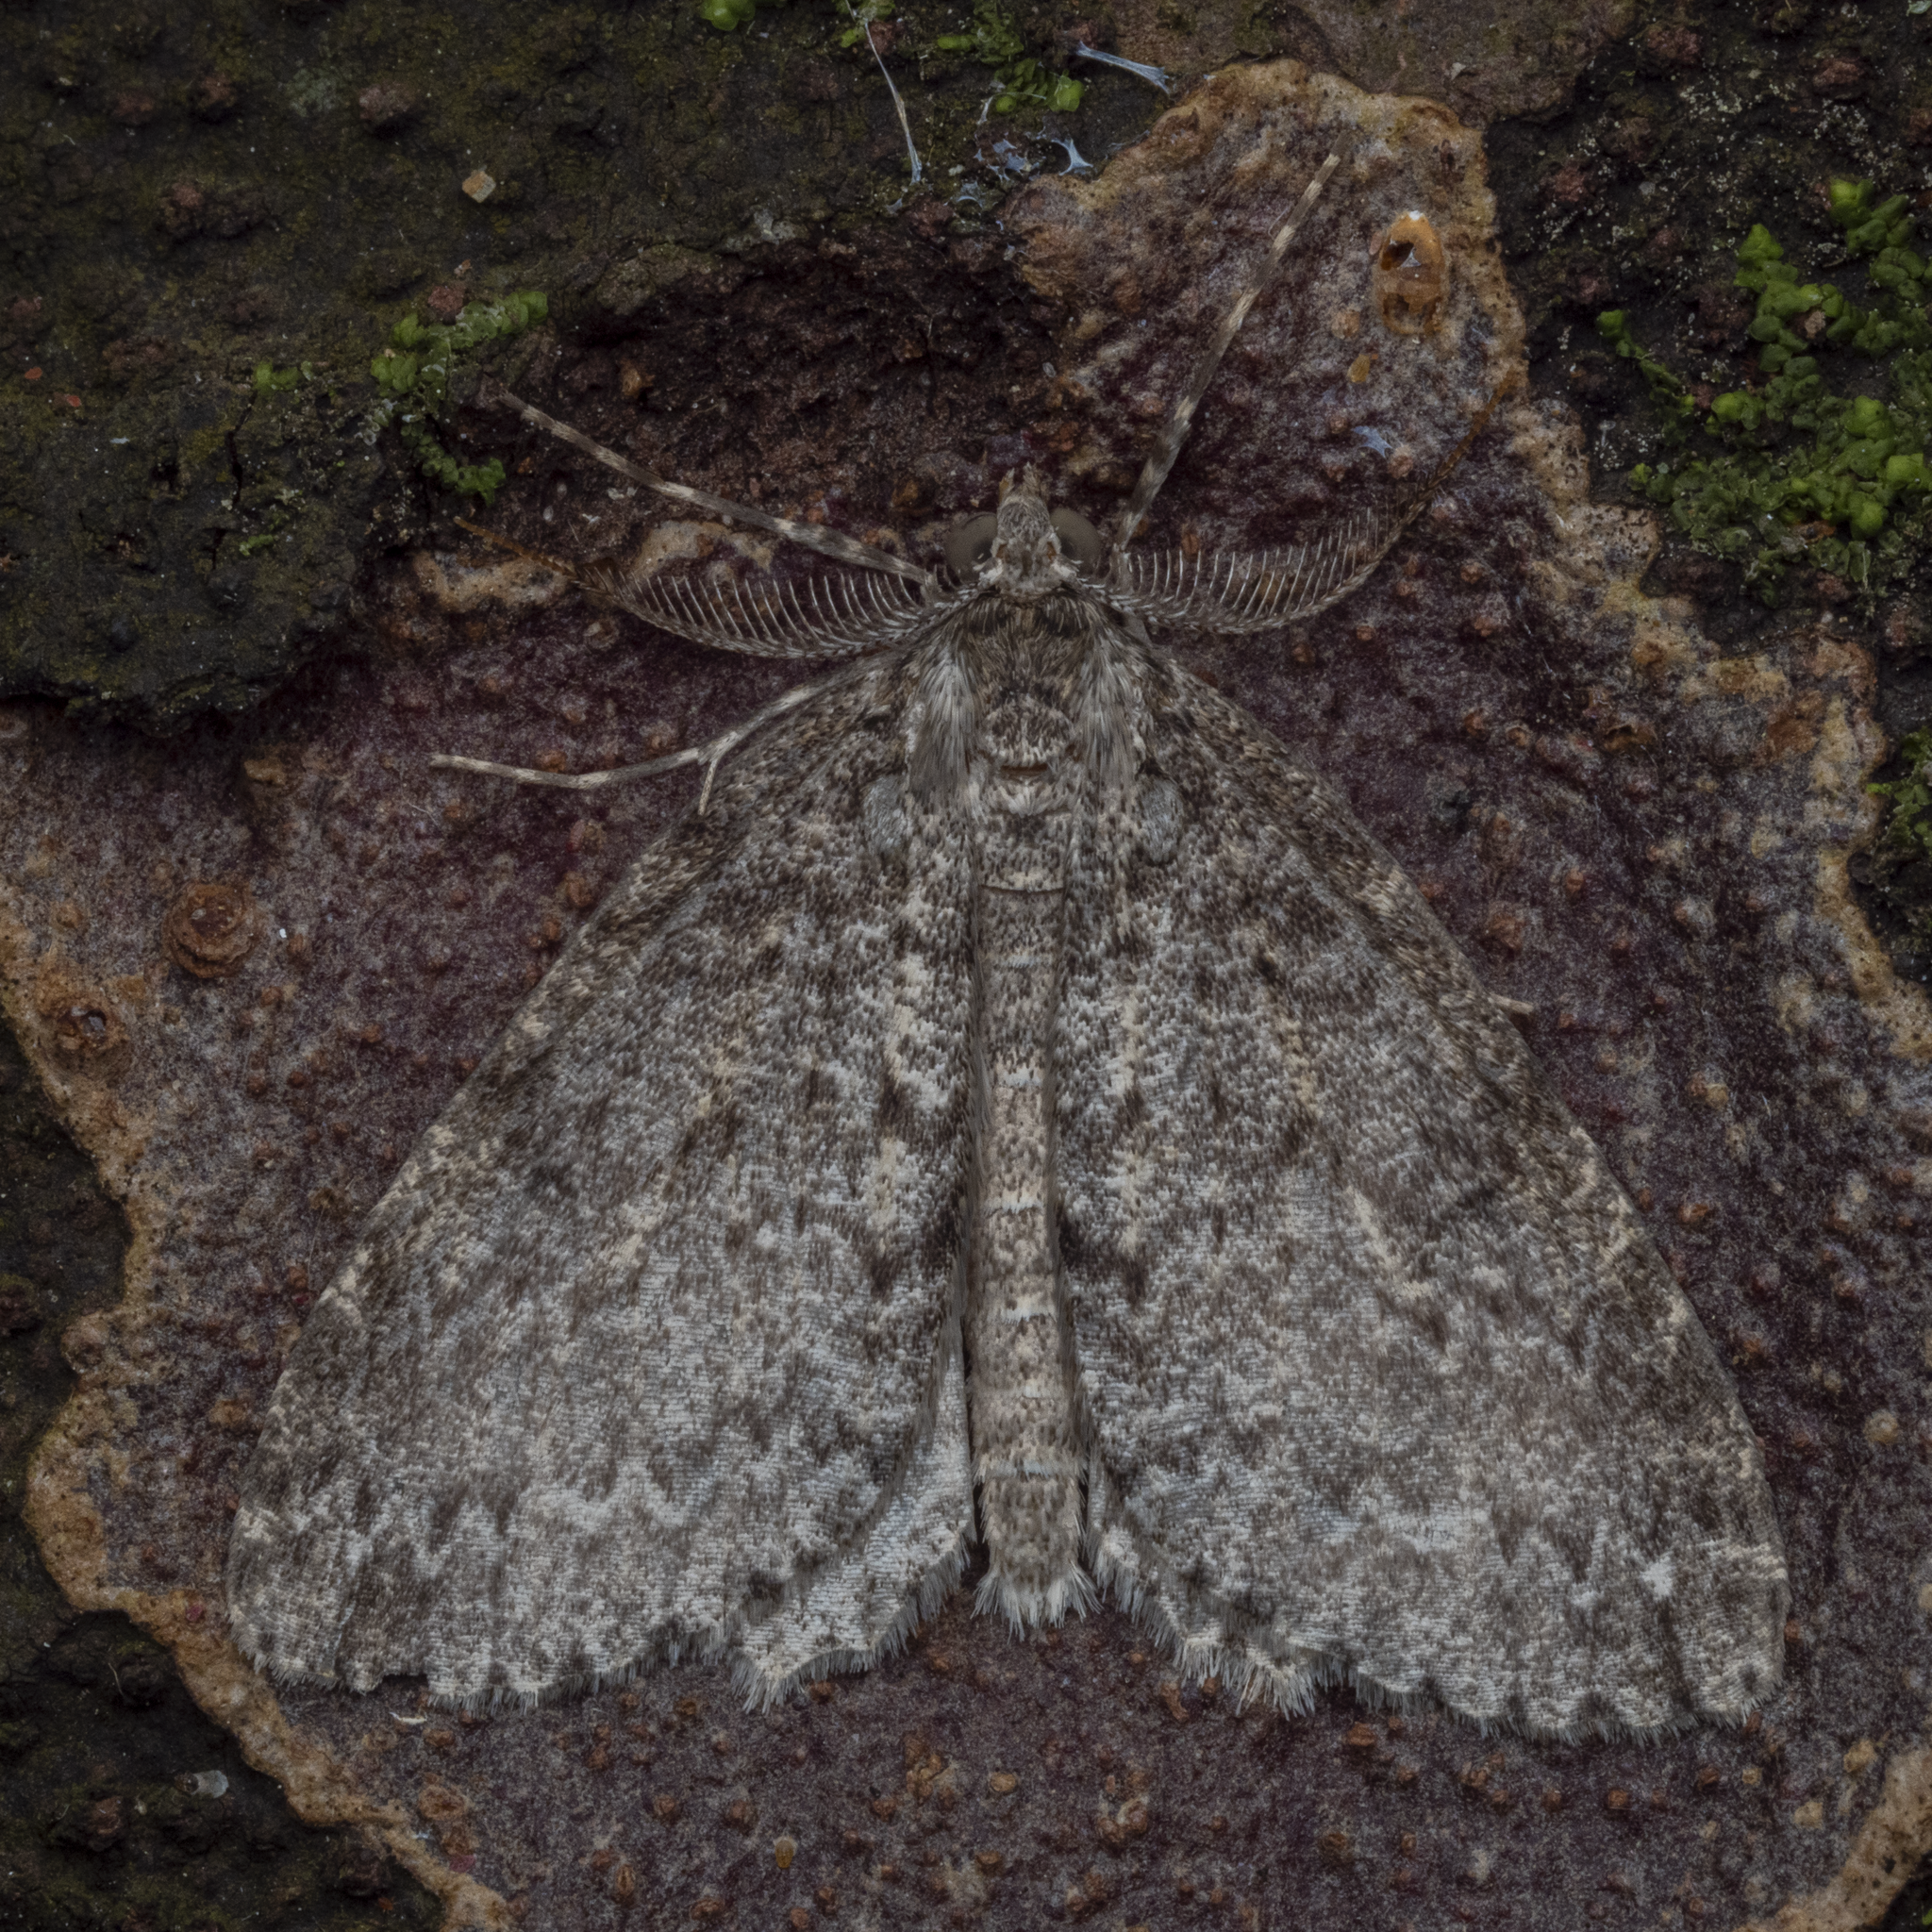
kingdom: Animalia
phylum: Arthropoda
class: Insecta
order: Lepidoptera
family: Geometridae
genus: Pseudocoremia
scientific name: Pseudocoremia fenerata
